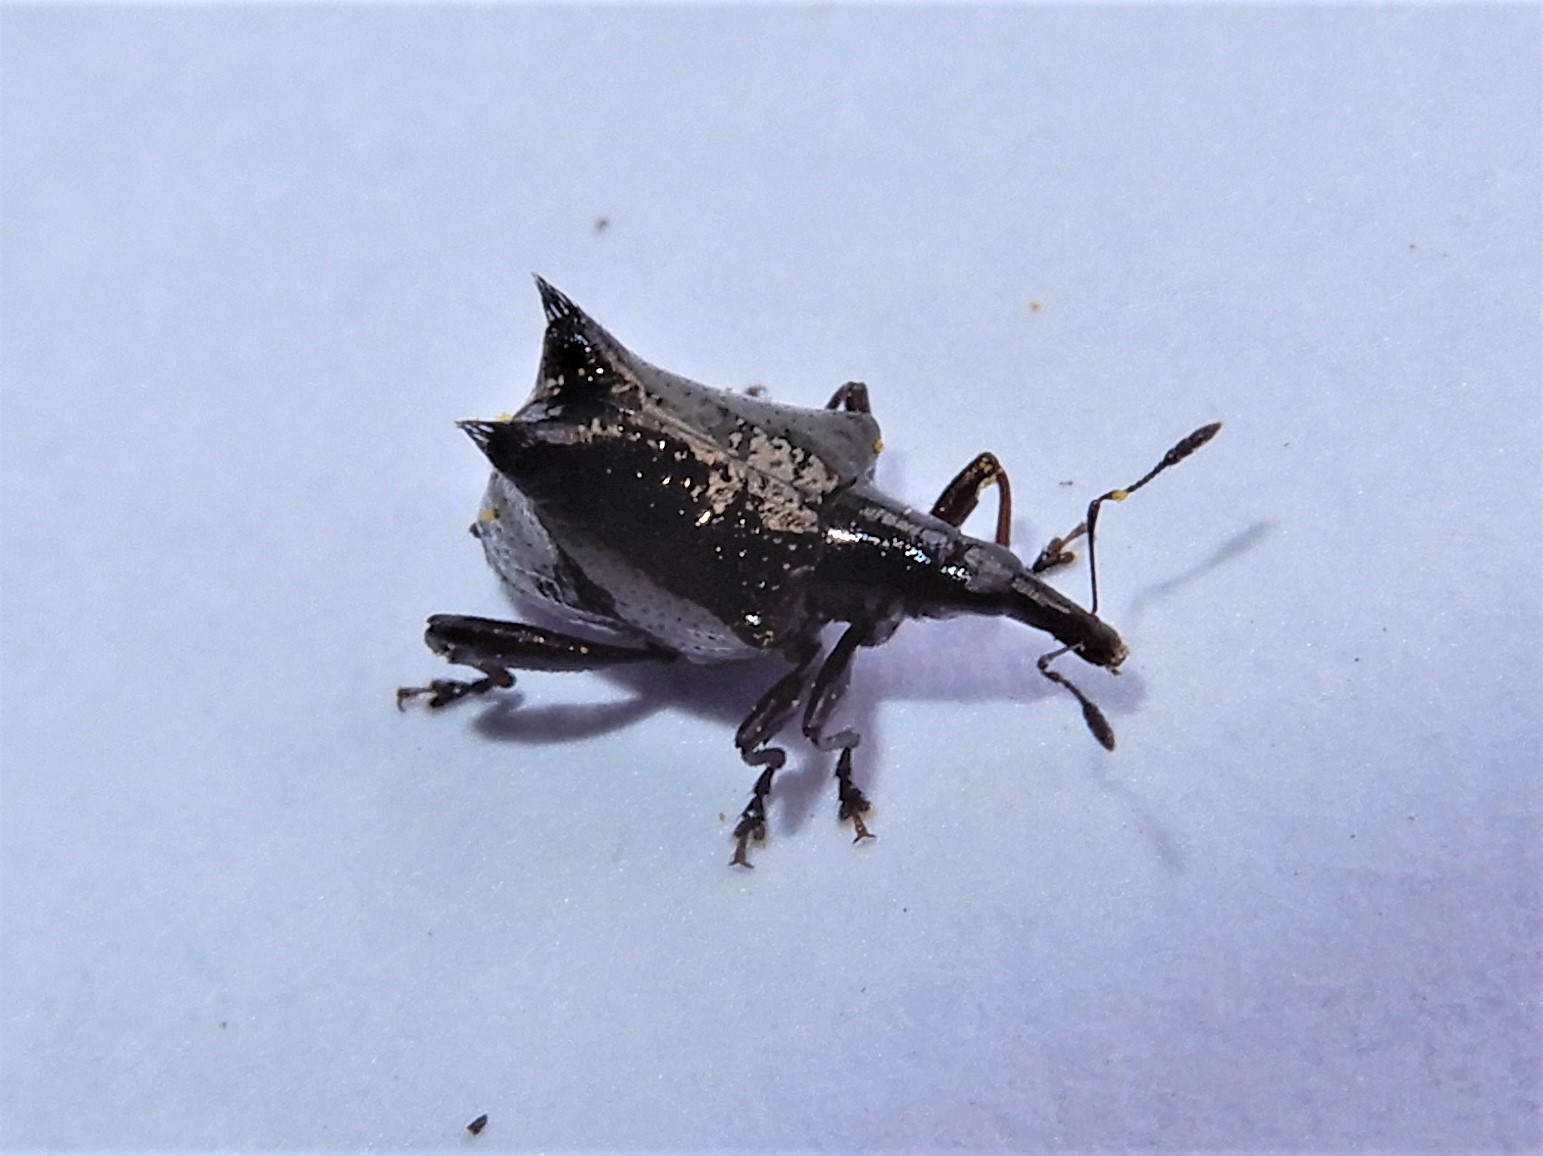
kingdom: Animalia
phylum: Arthropoda
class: Insecta
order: Coleoptera
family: Curculionidae
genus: Scolopterus
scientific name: Scolopterus penicillatus
